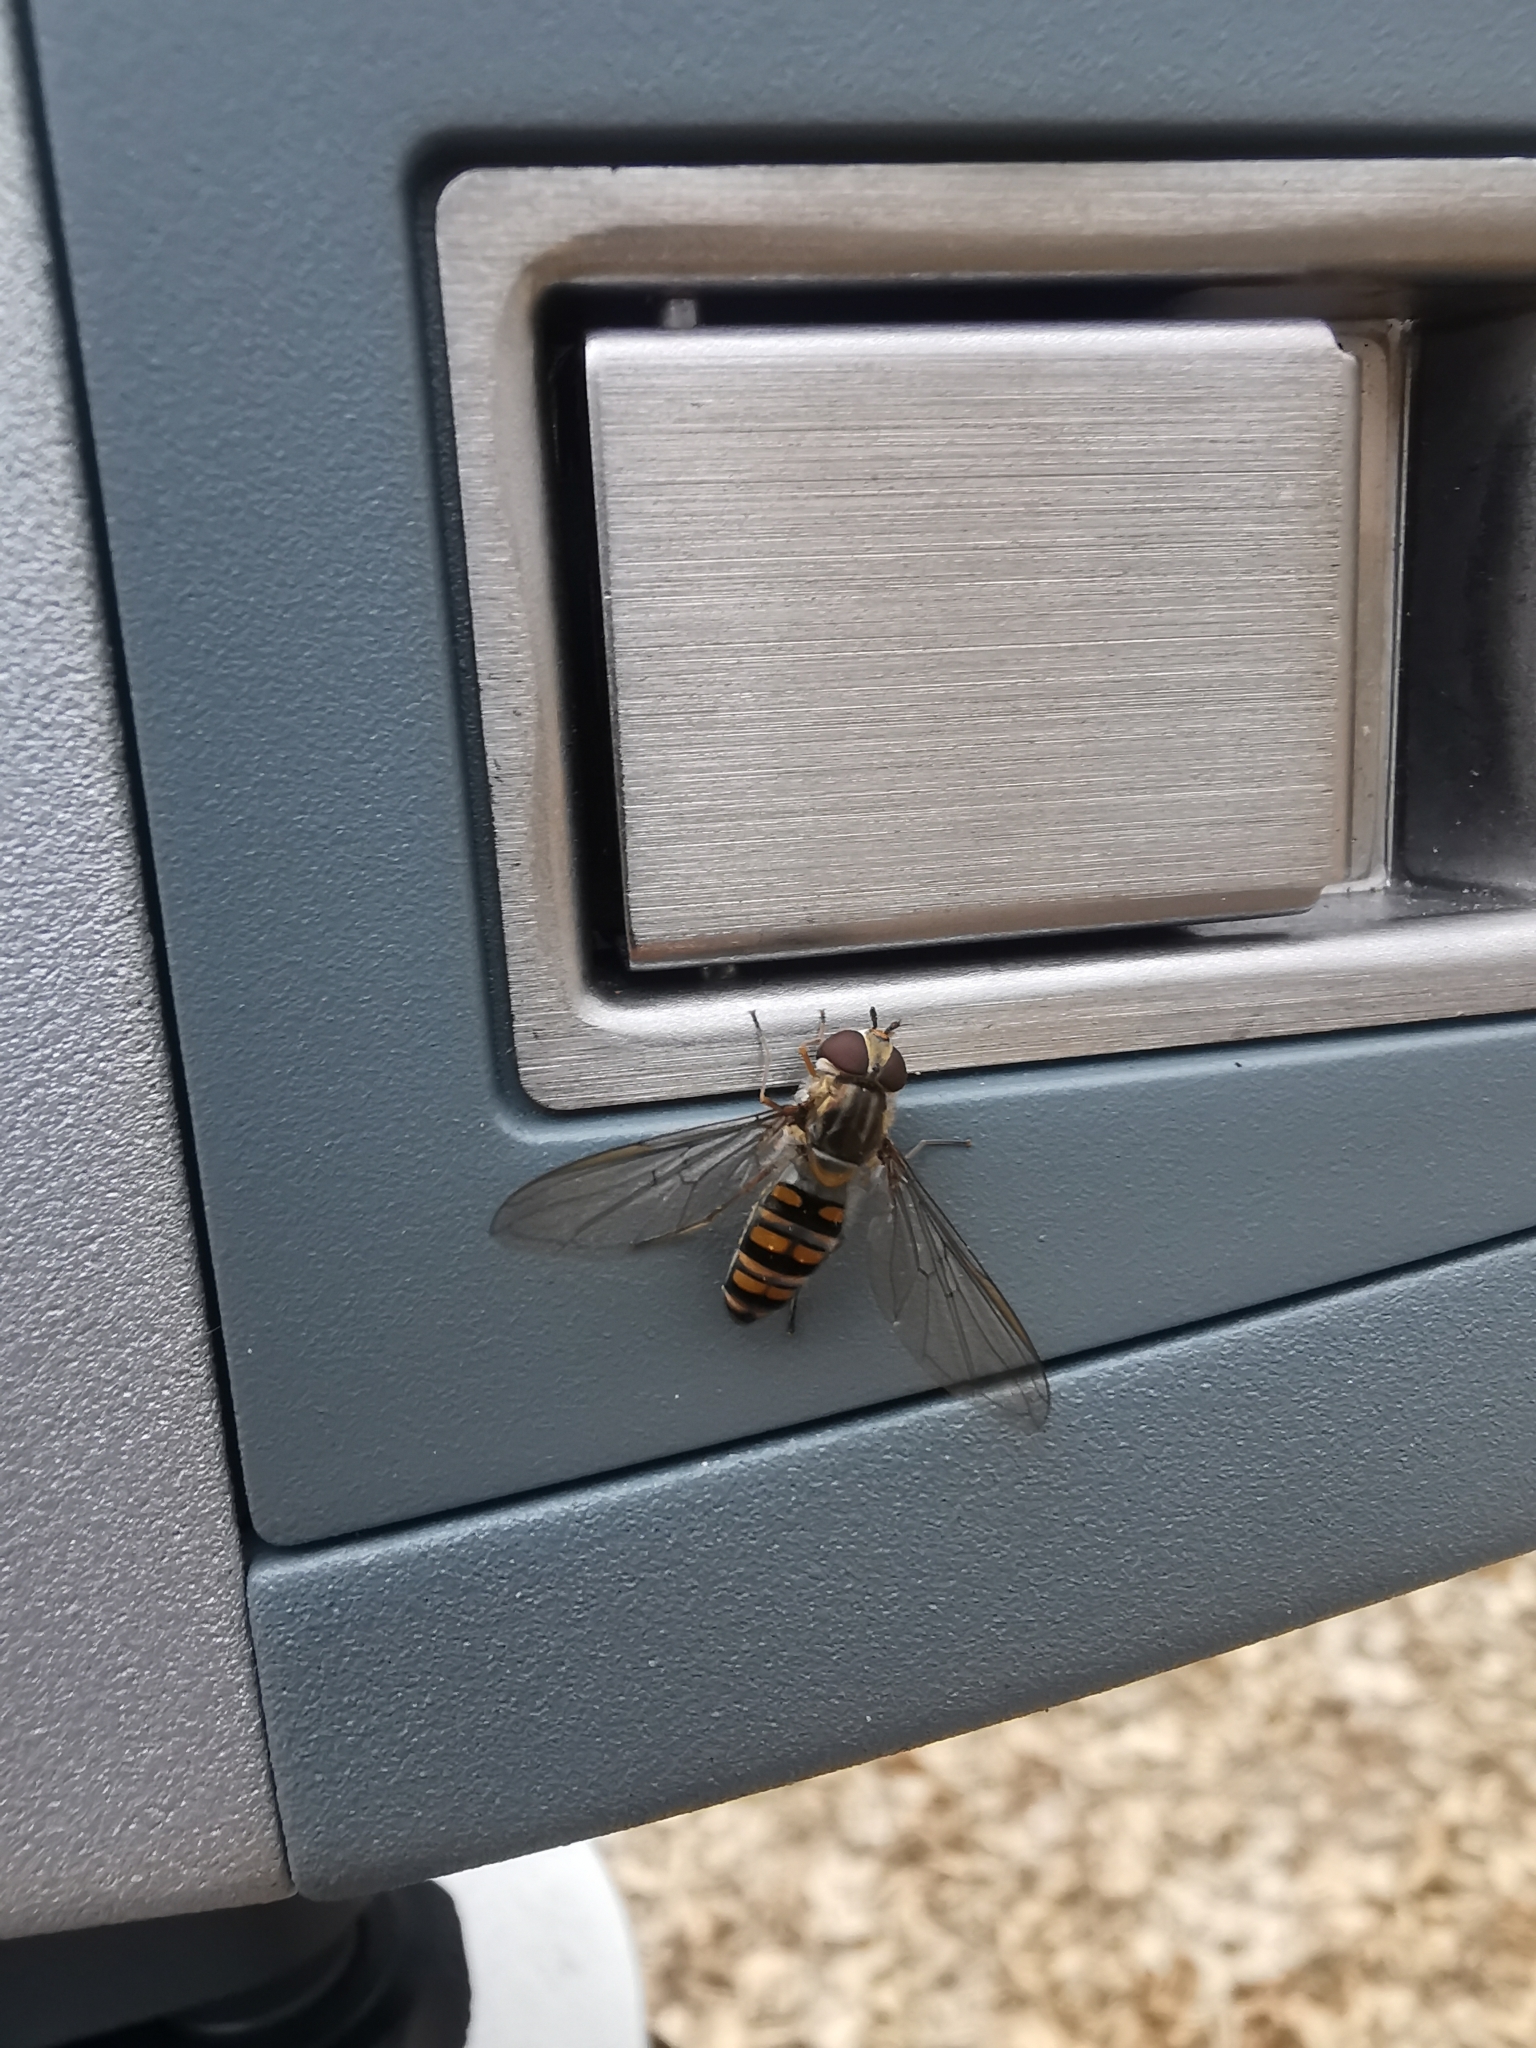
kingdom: Animalia
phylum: Arthropoda
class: Insecta
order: Diptera
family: Syrphidae
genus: Episyrphus
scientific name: Episyrphus balteatus
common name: Marmalade hoverfly
